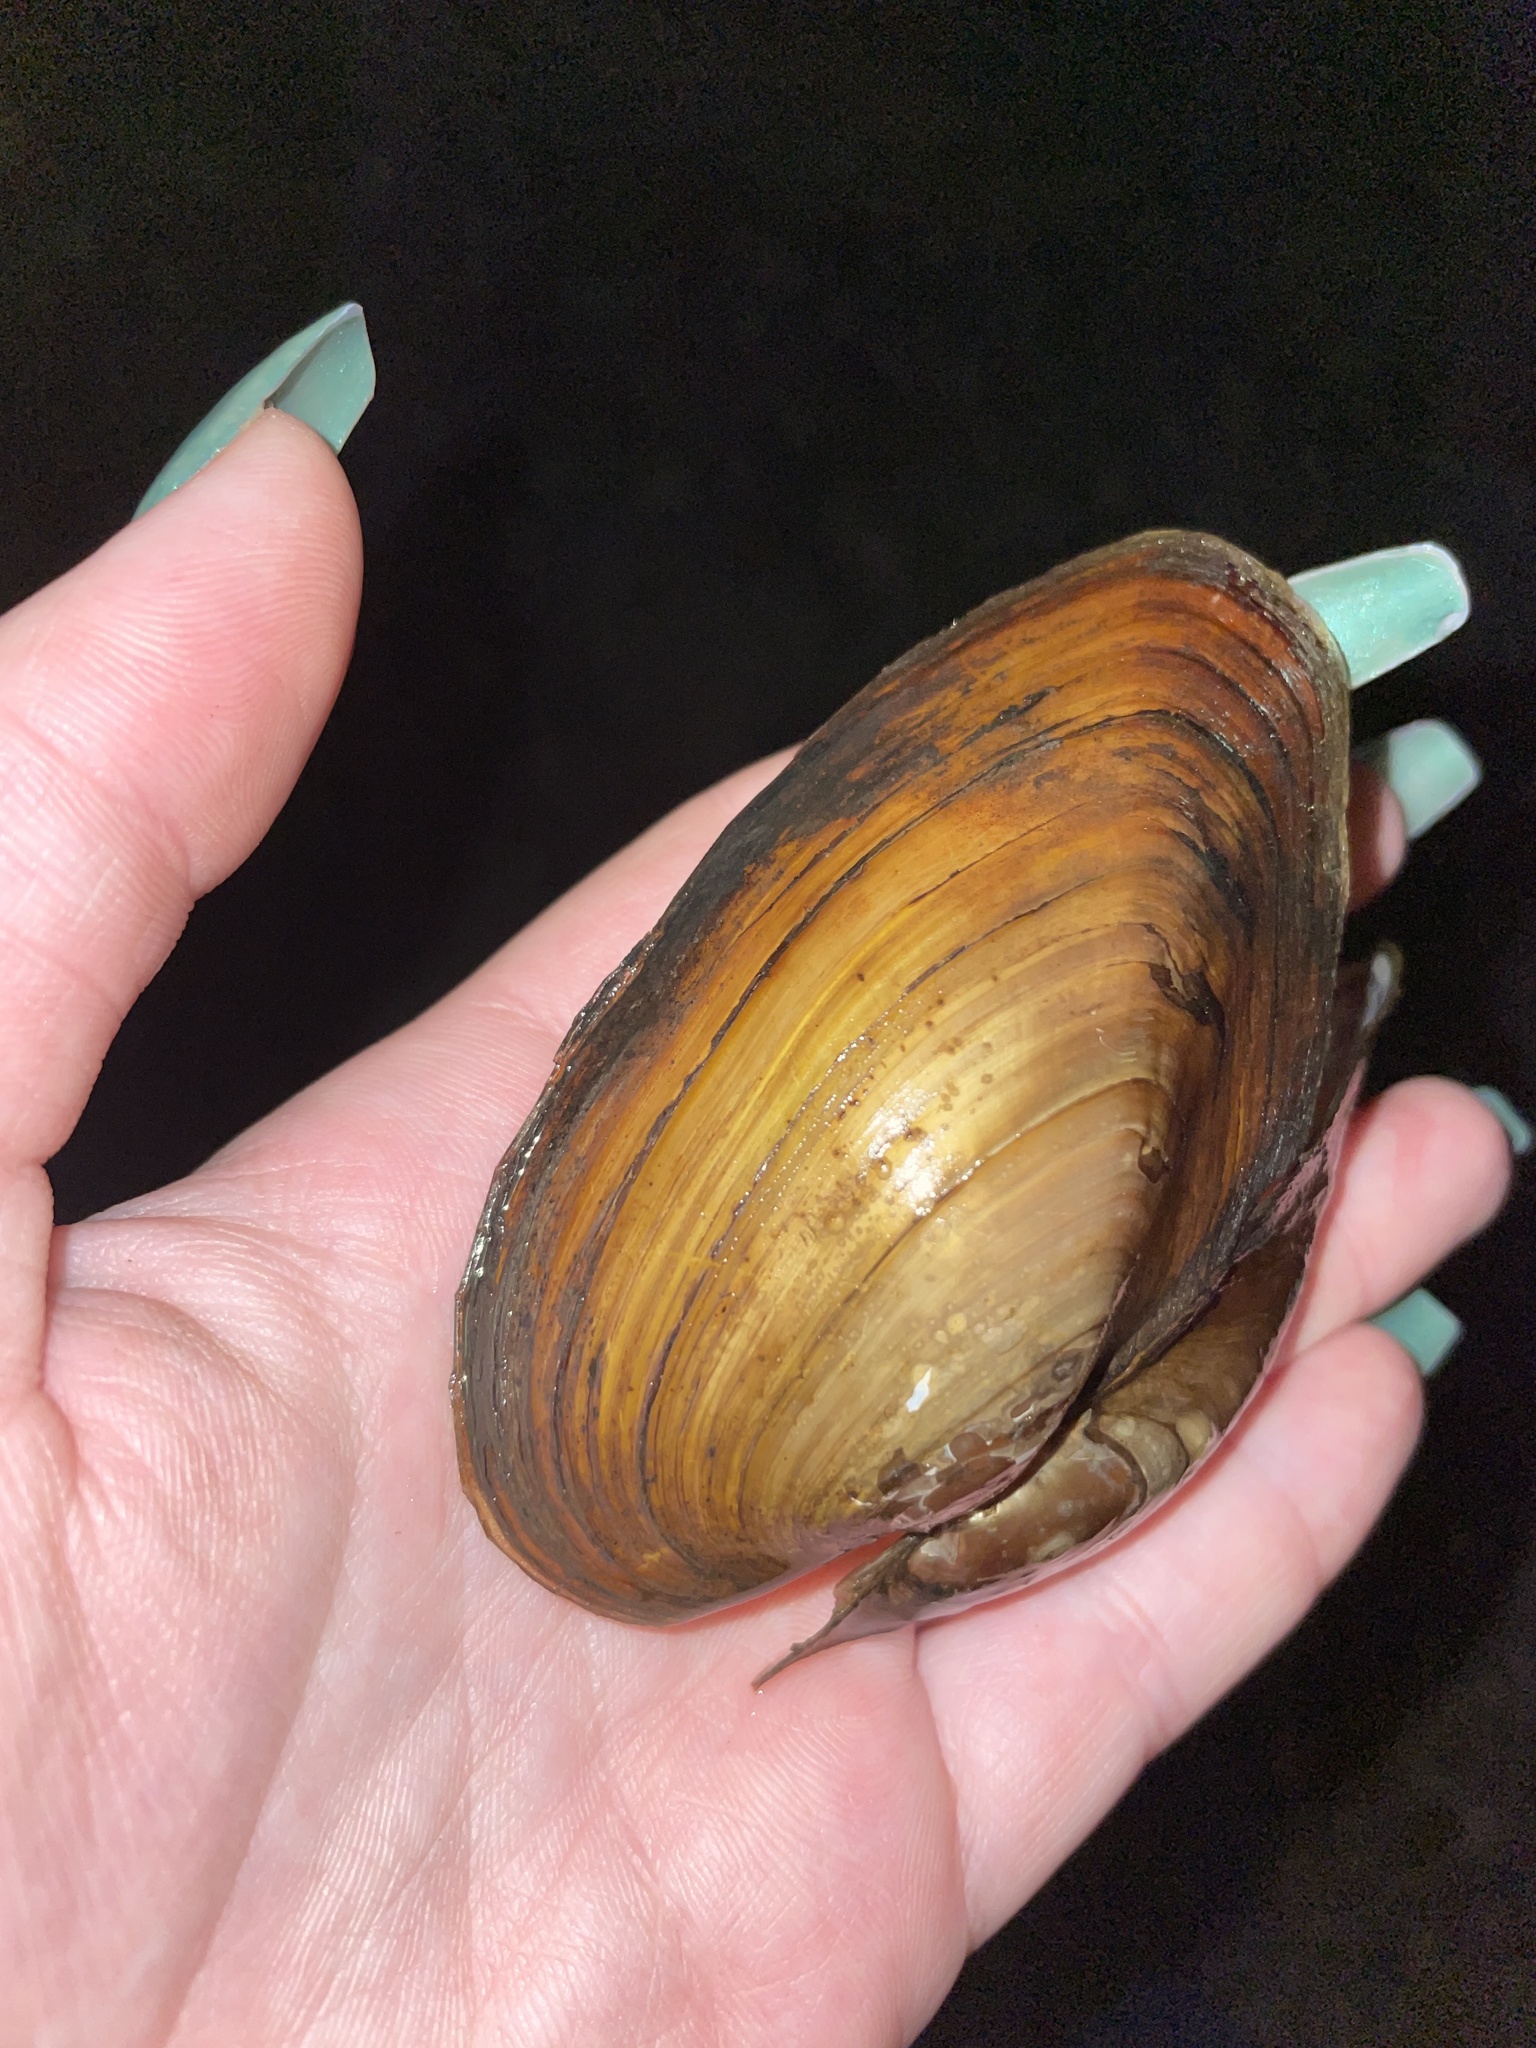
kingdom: Animalia
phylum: Mollusca
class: Bivalvia
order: Unionida
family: Unionidae
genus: Utterbackiana
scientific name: Utterbackiana implicata
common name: Alewife floater
